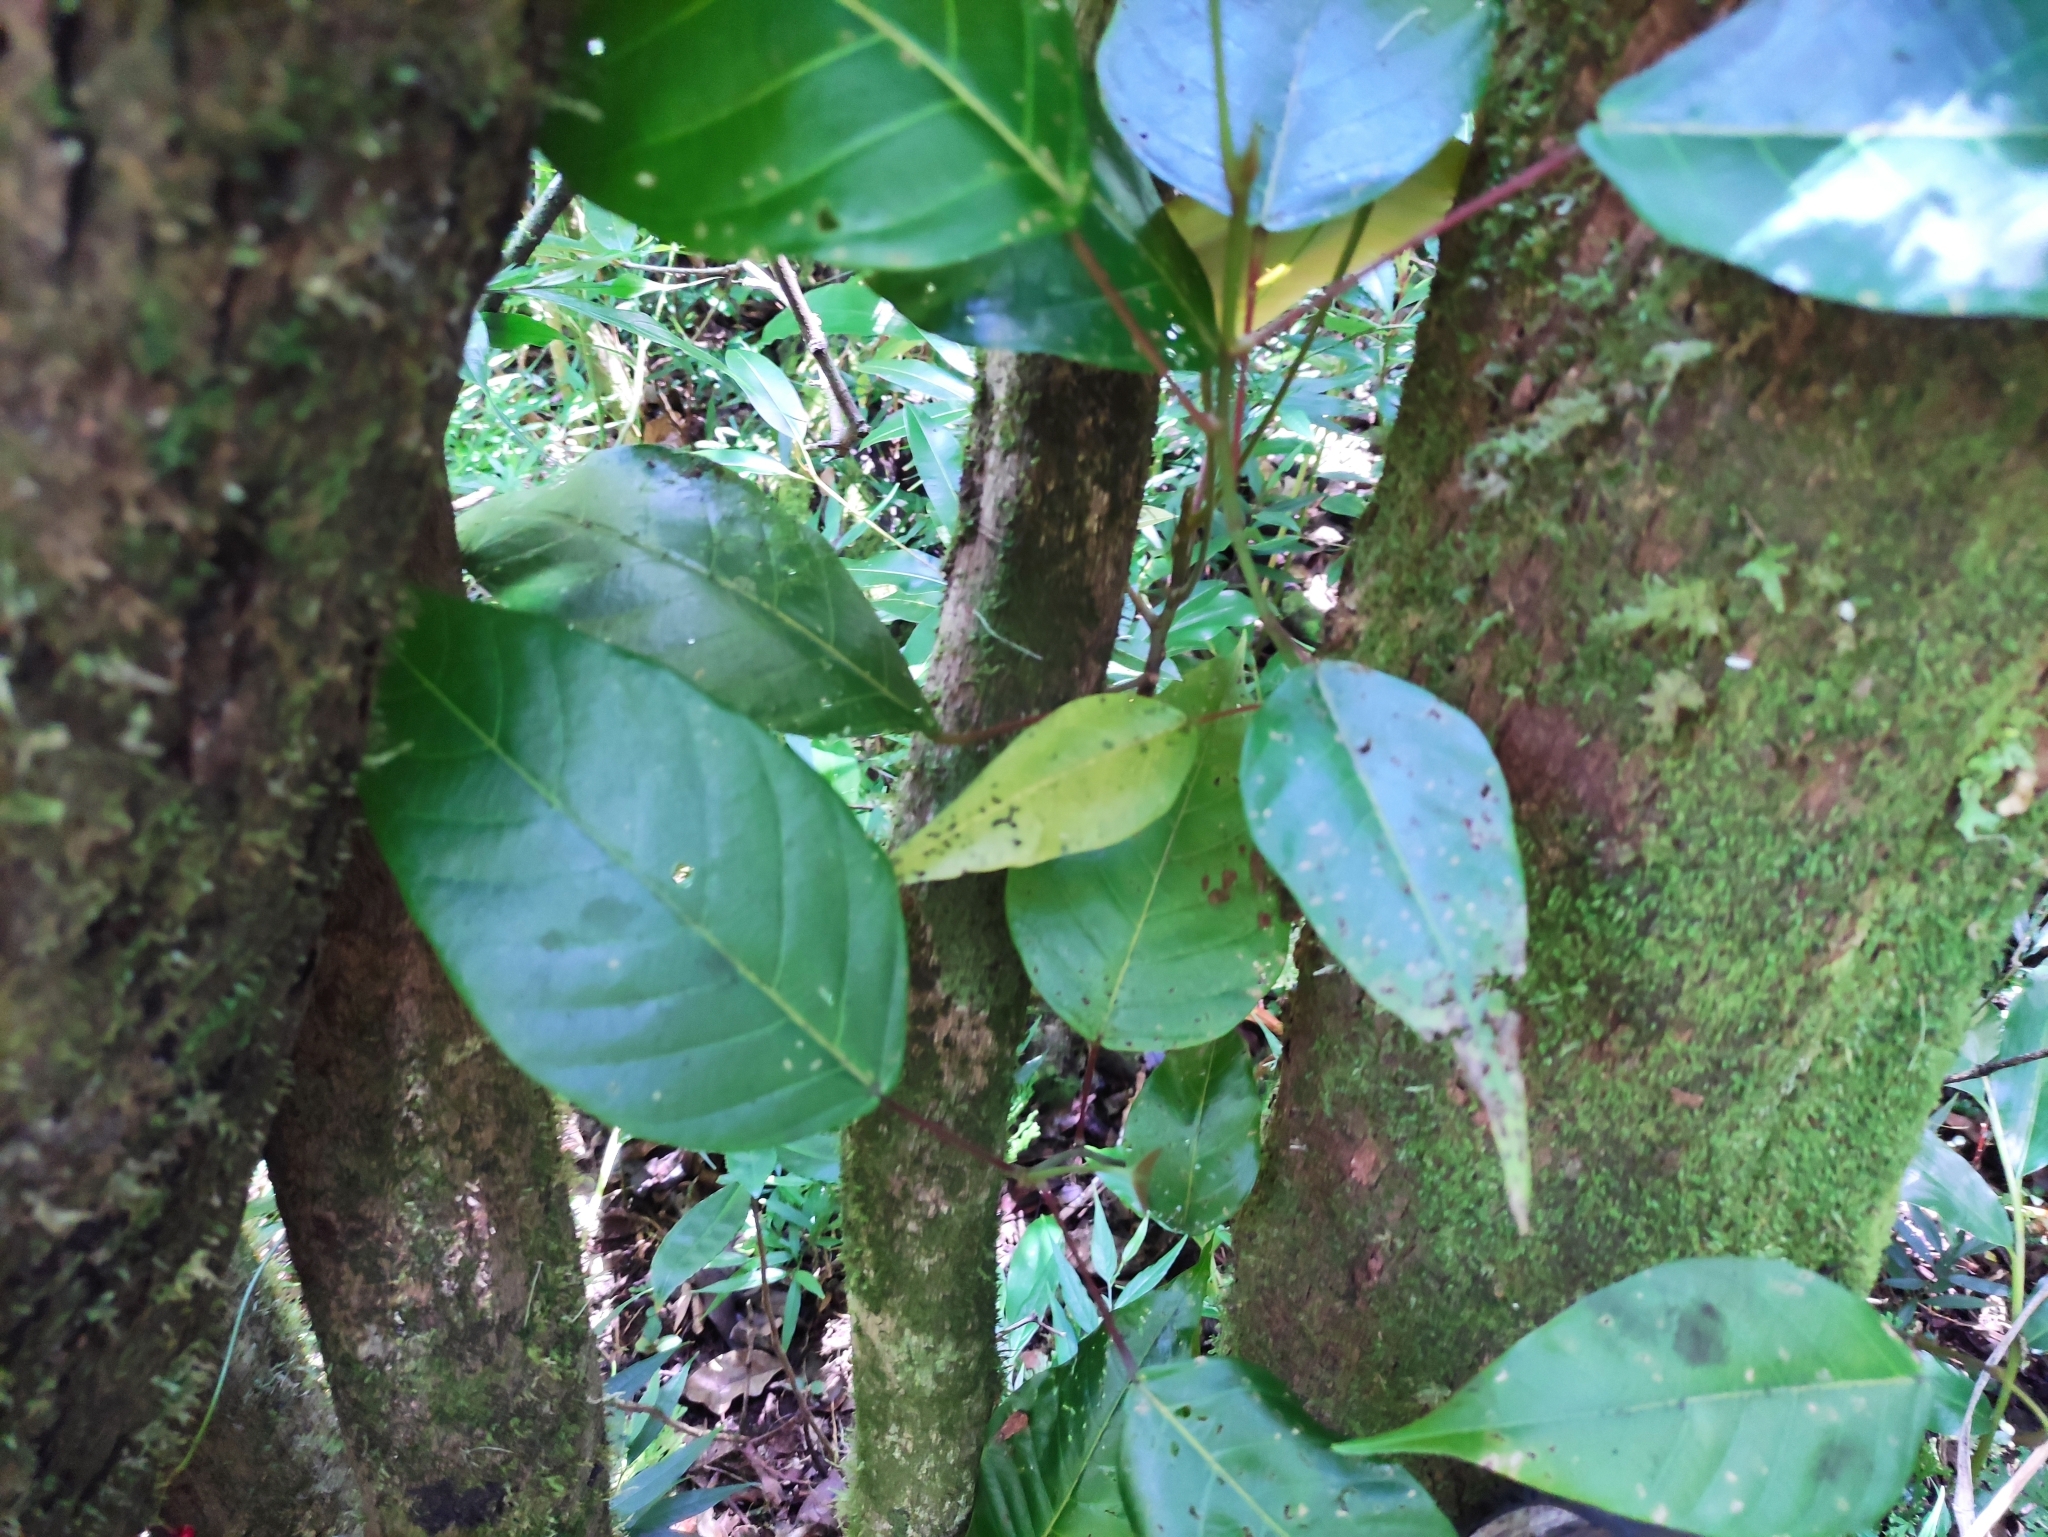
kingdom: Plantae
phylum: Tracheophyta
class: Magnoliopsida
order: Malpighiales
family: Euphorbiaceae
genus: Hancea
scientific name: Hancea integrifolia
